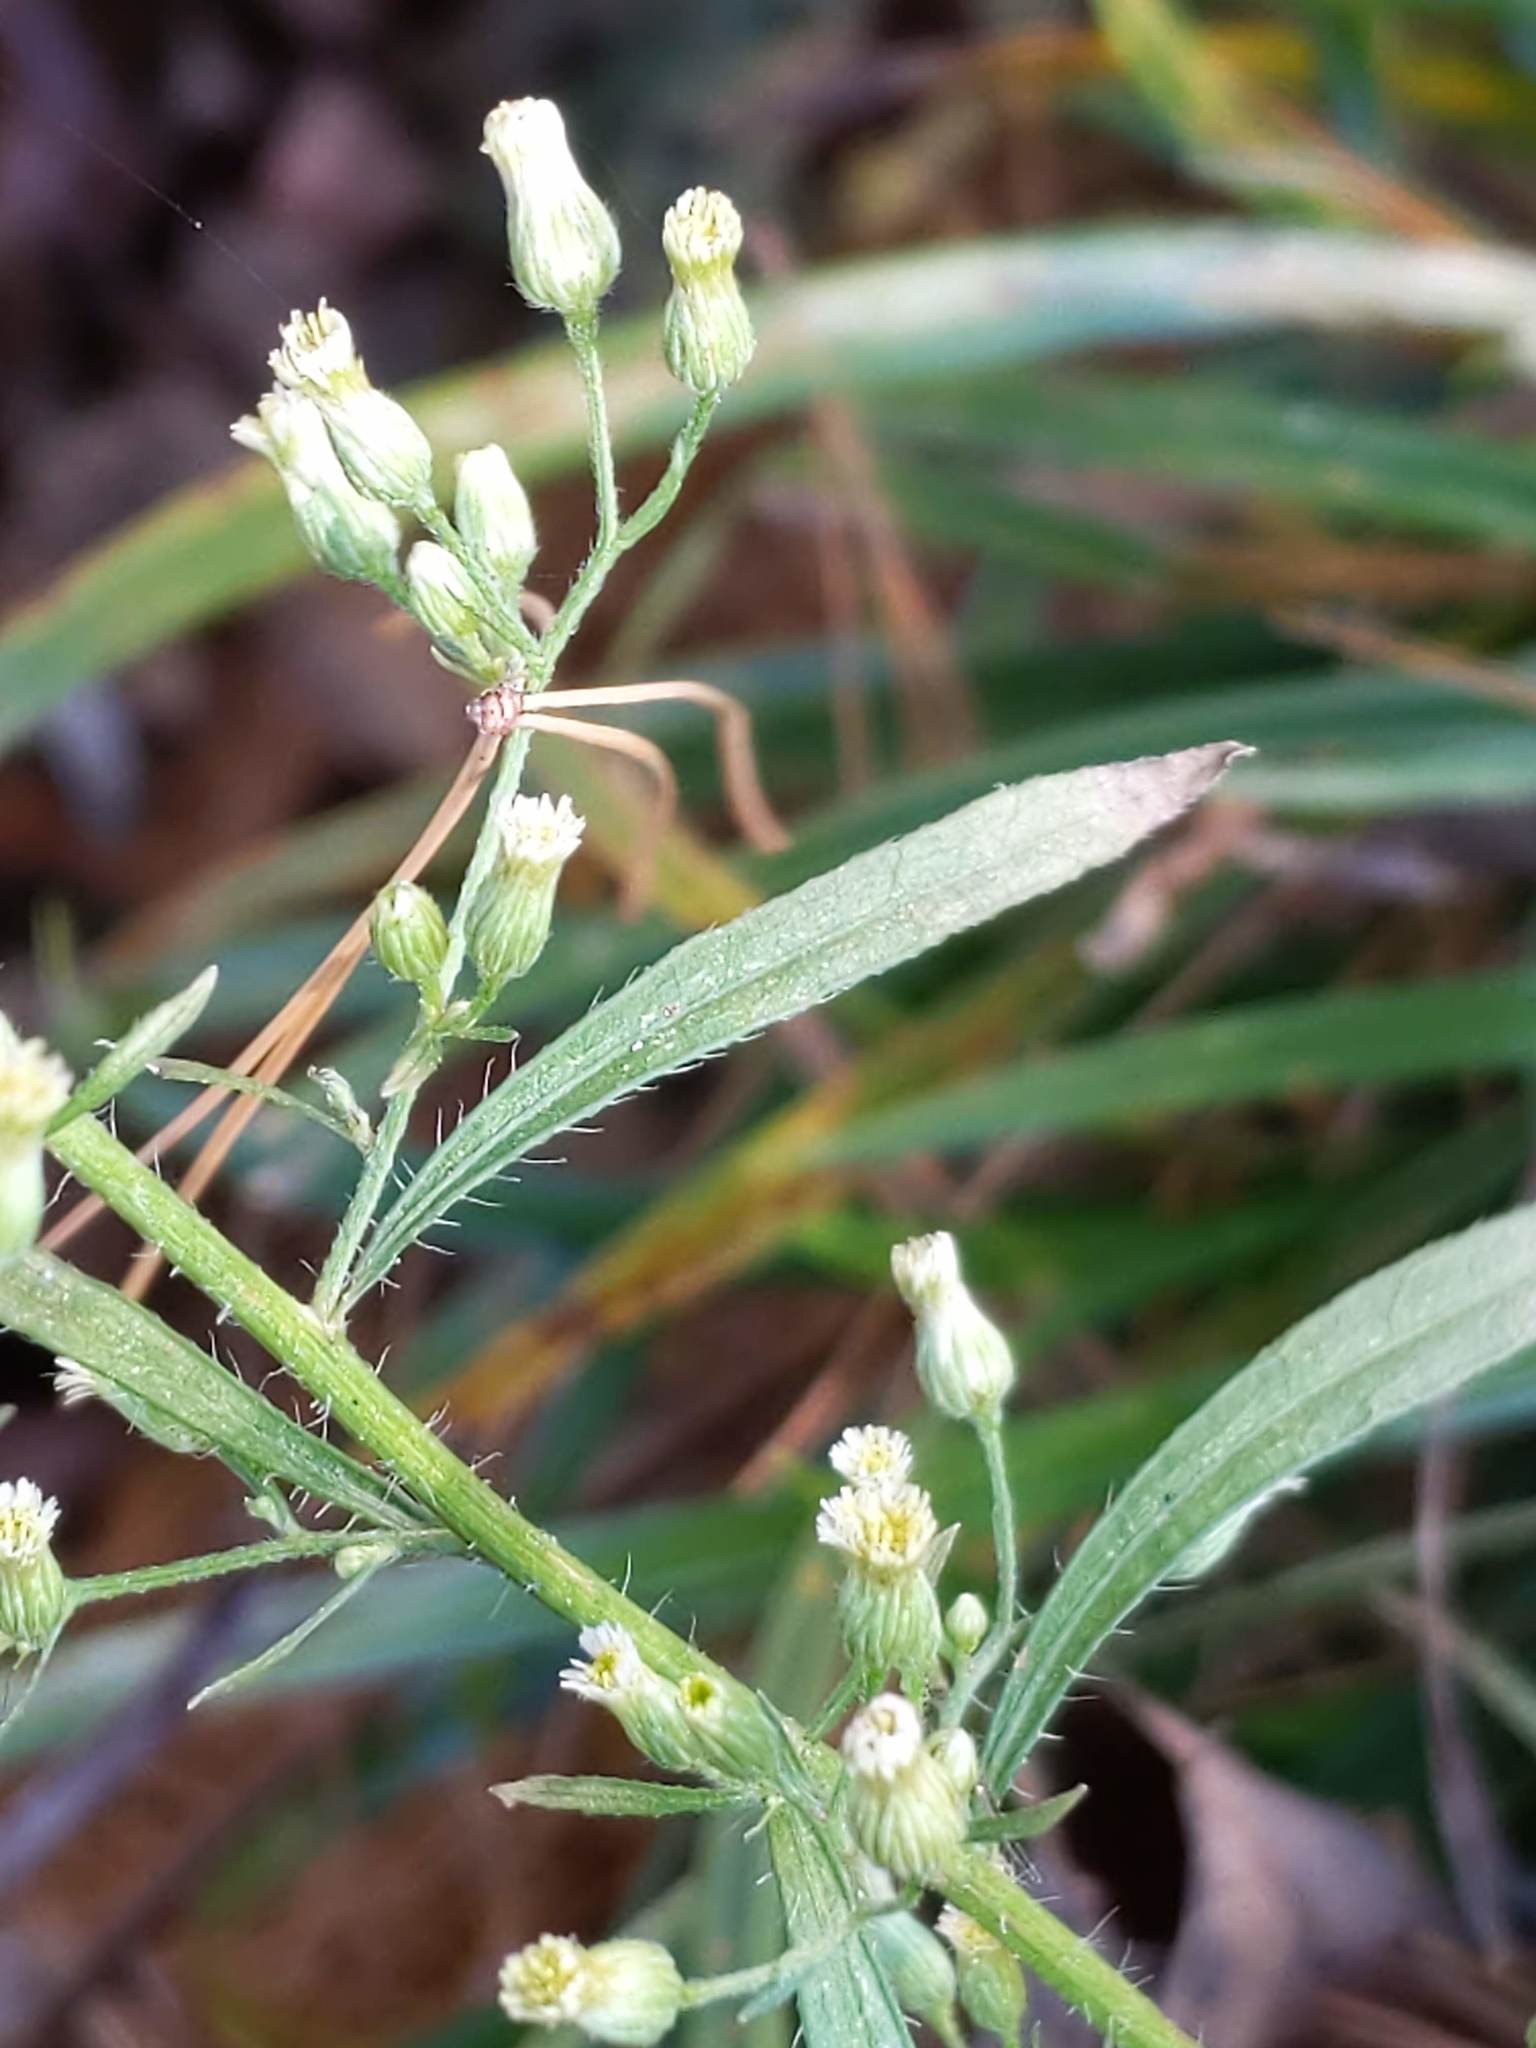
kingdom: Plantae
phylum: Tracheophyta
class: Magnoliopsida
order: Asterales
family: Asteraceae
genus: Erigeron
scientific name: Erigeron canadensis
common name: Canadian fleabane
